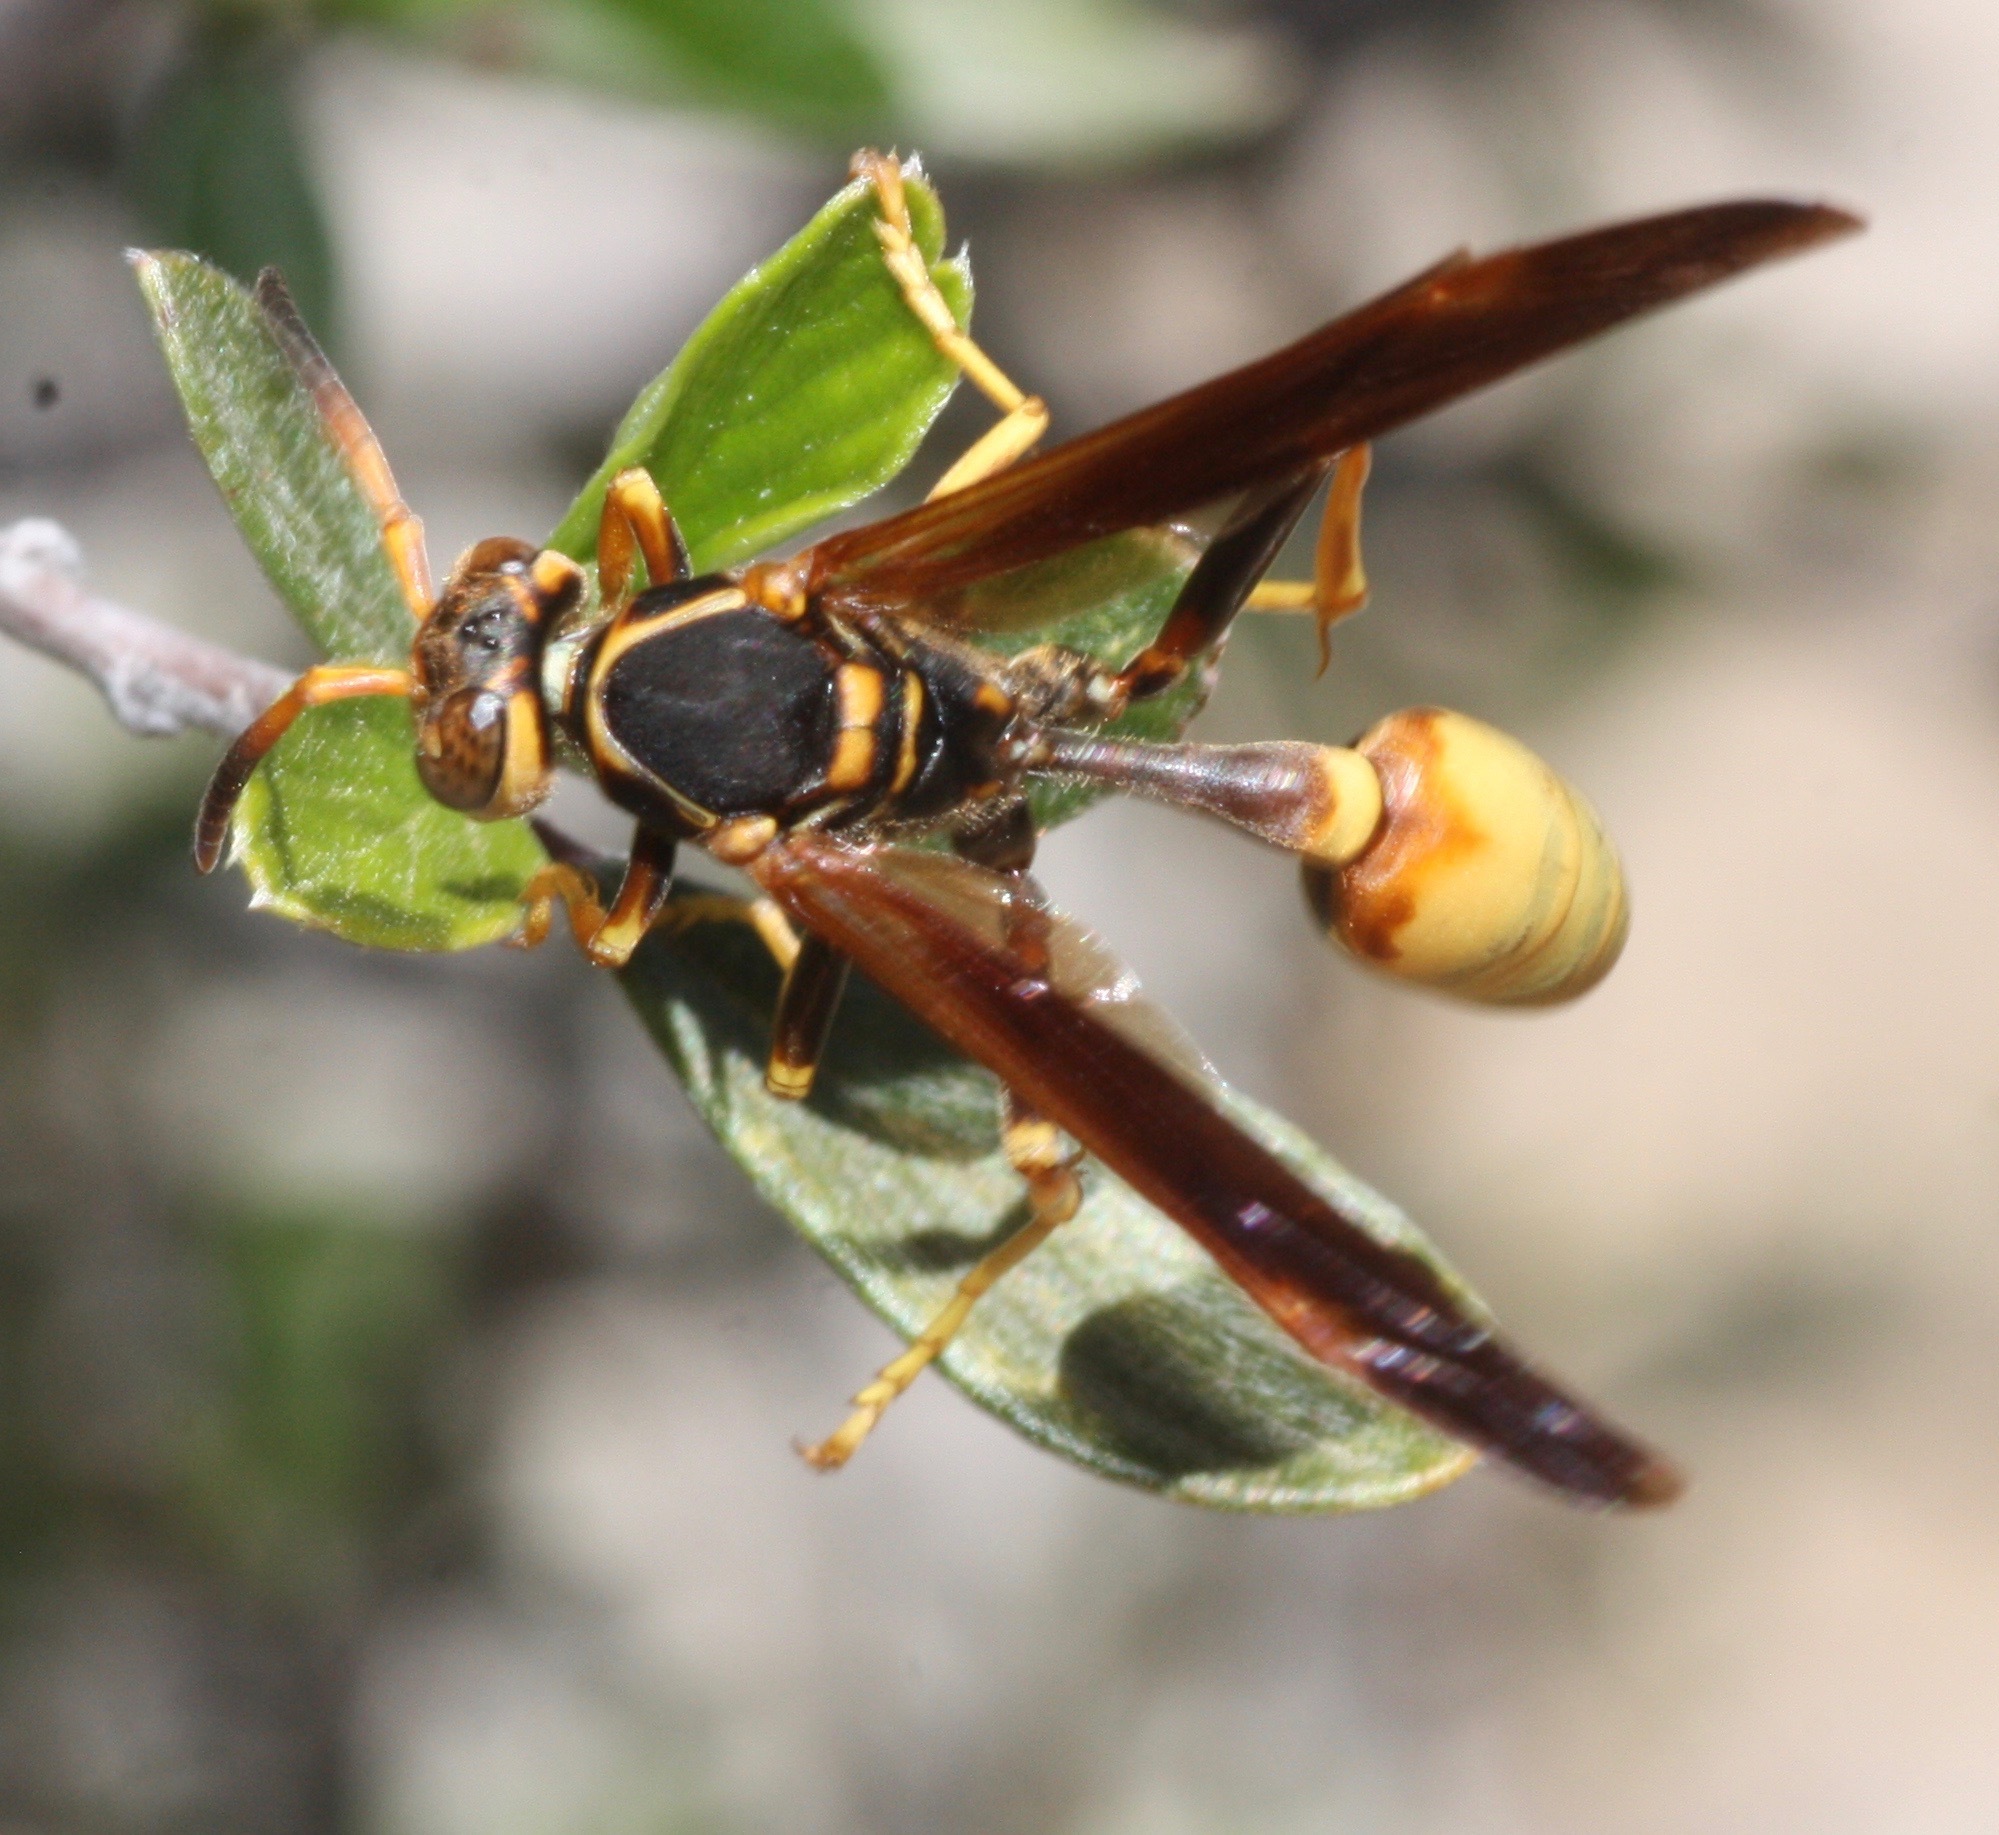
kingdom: Animalia
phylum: Arthropoda
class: Insecta
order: Hymenoptera
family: Vespidae
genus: Mischocyttarus
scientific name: Mischocyttarus flavitarsis
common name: Wasp
